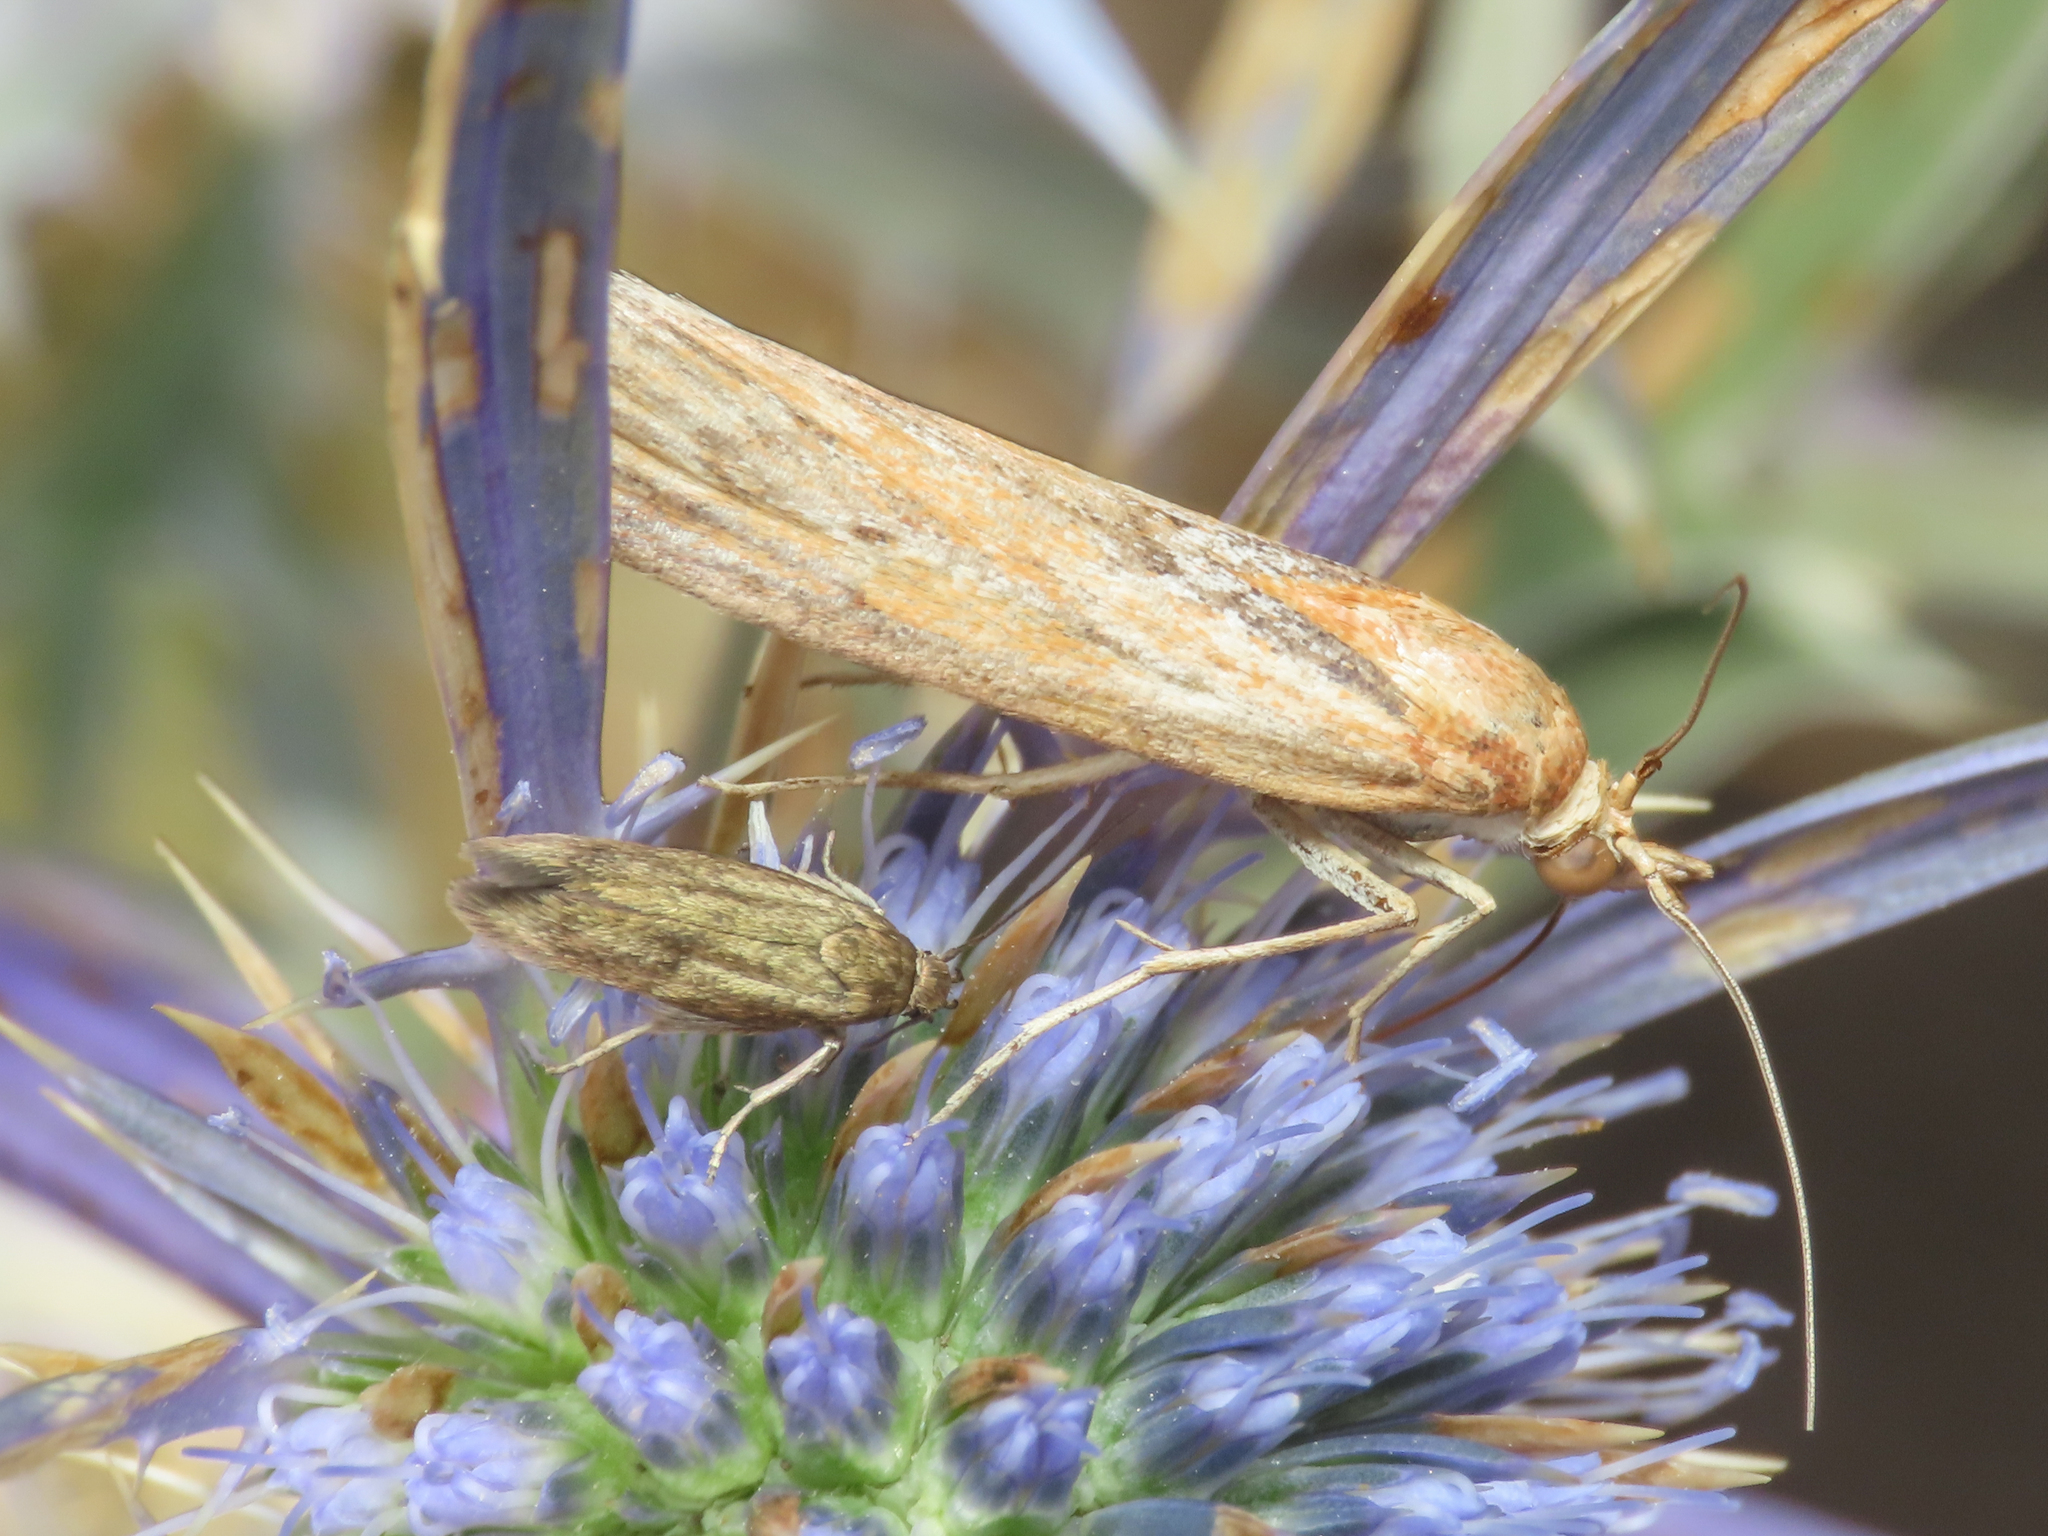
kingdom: Animalia
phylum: Arthropoda
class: Insecta
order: Lepidoptera
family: Pyralidae
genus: Selagia
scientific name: Selagia spadicella
